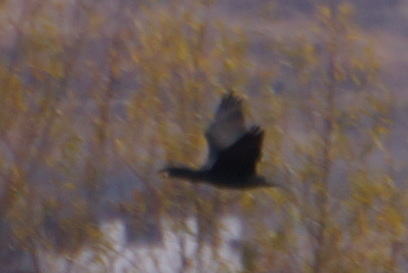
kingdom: Animalia
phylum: Chordata
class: Aves
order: Suliformes
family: Phalacrocoracidae
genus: Phalacrocorax
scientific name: Phalacrocorax carbo
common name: Great cormorant
